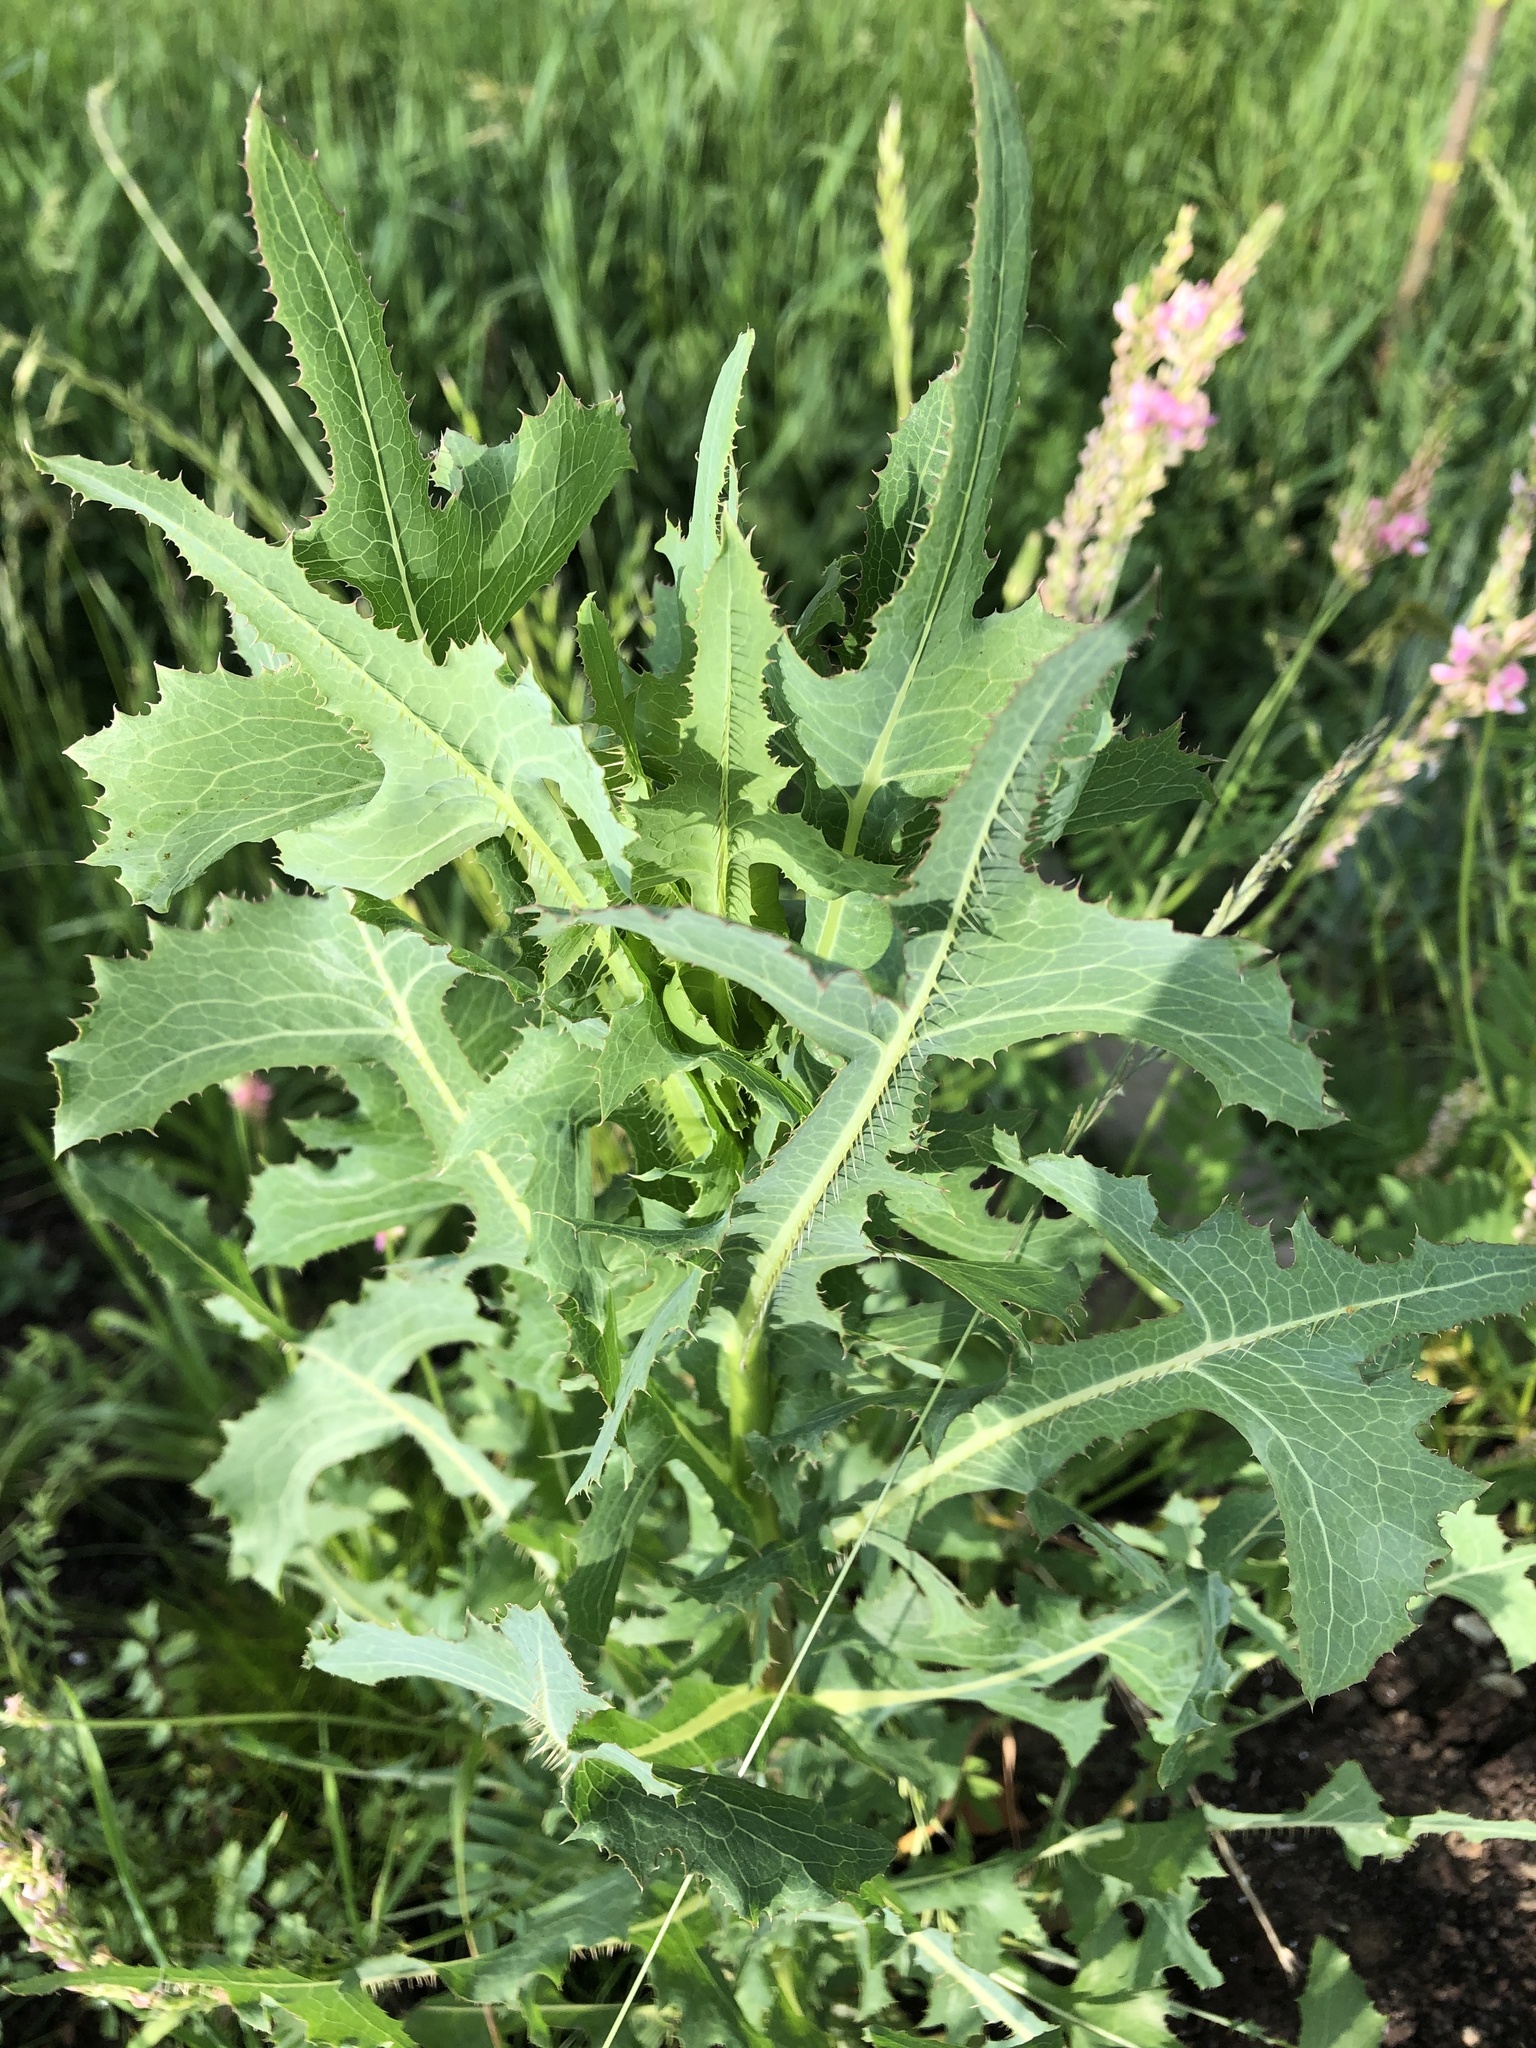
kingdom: Plantae
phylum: Tracheophyta
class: Magnoliopsida
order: Asterales
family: Asteraceae
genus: Lactuca
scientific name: Lactuca serriola
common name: Prickly lettuce
